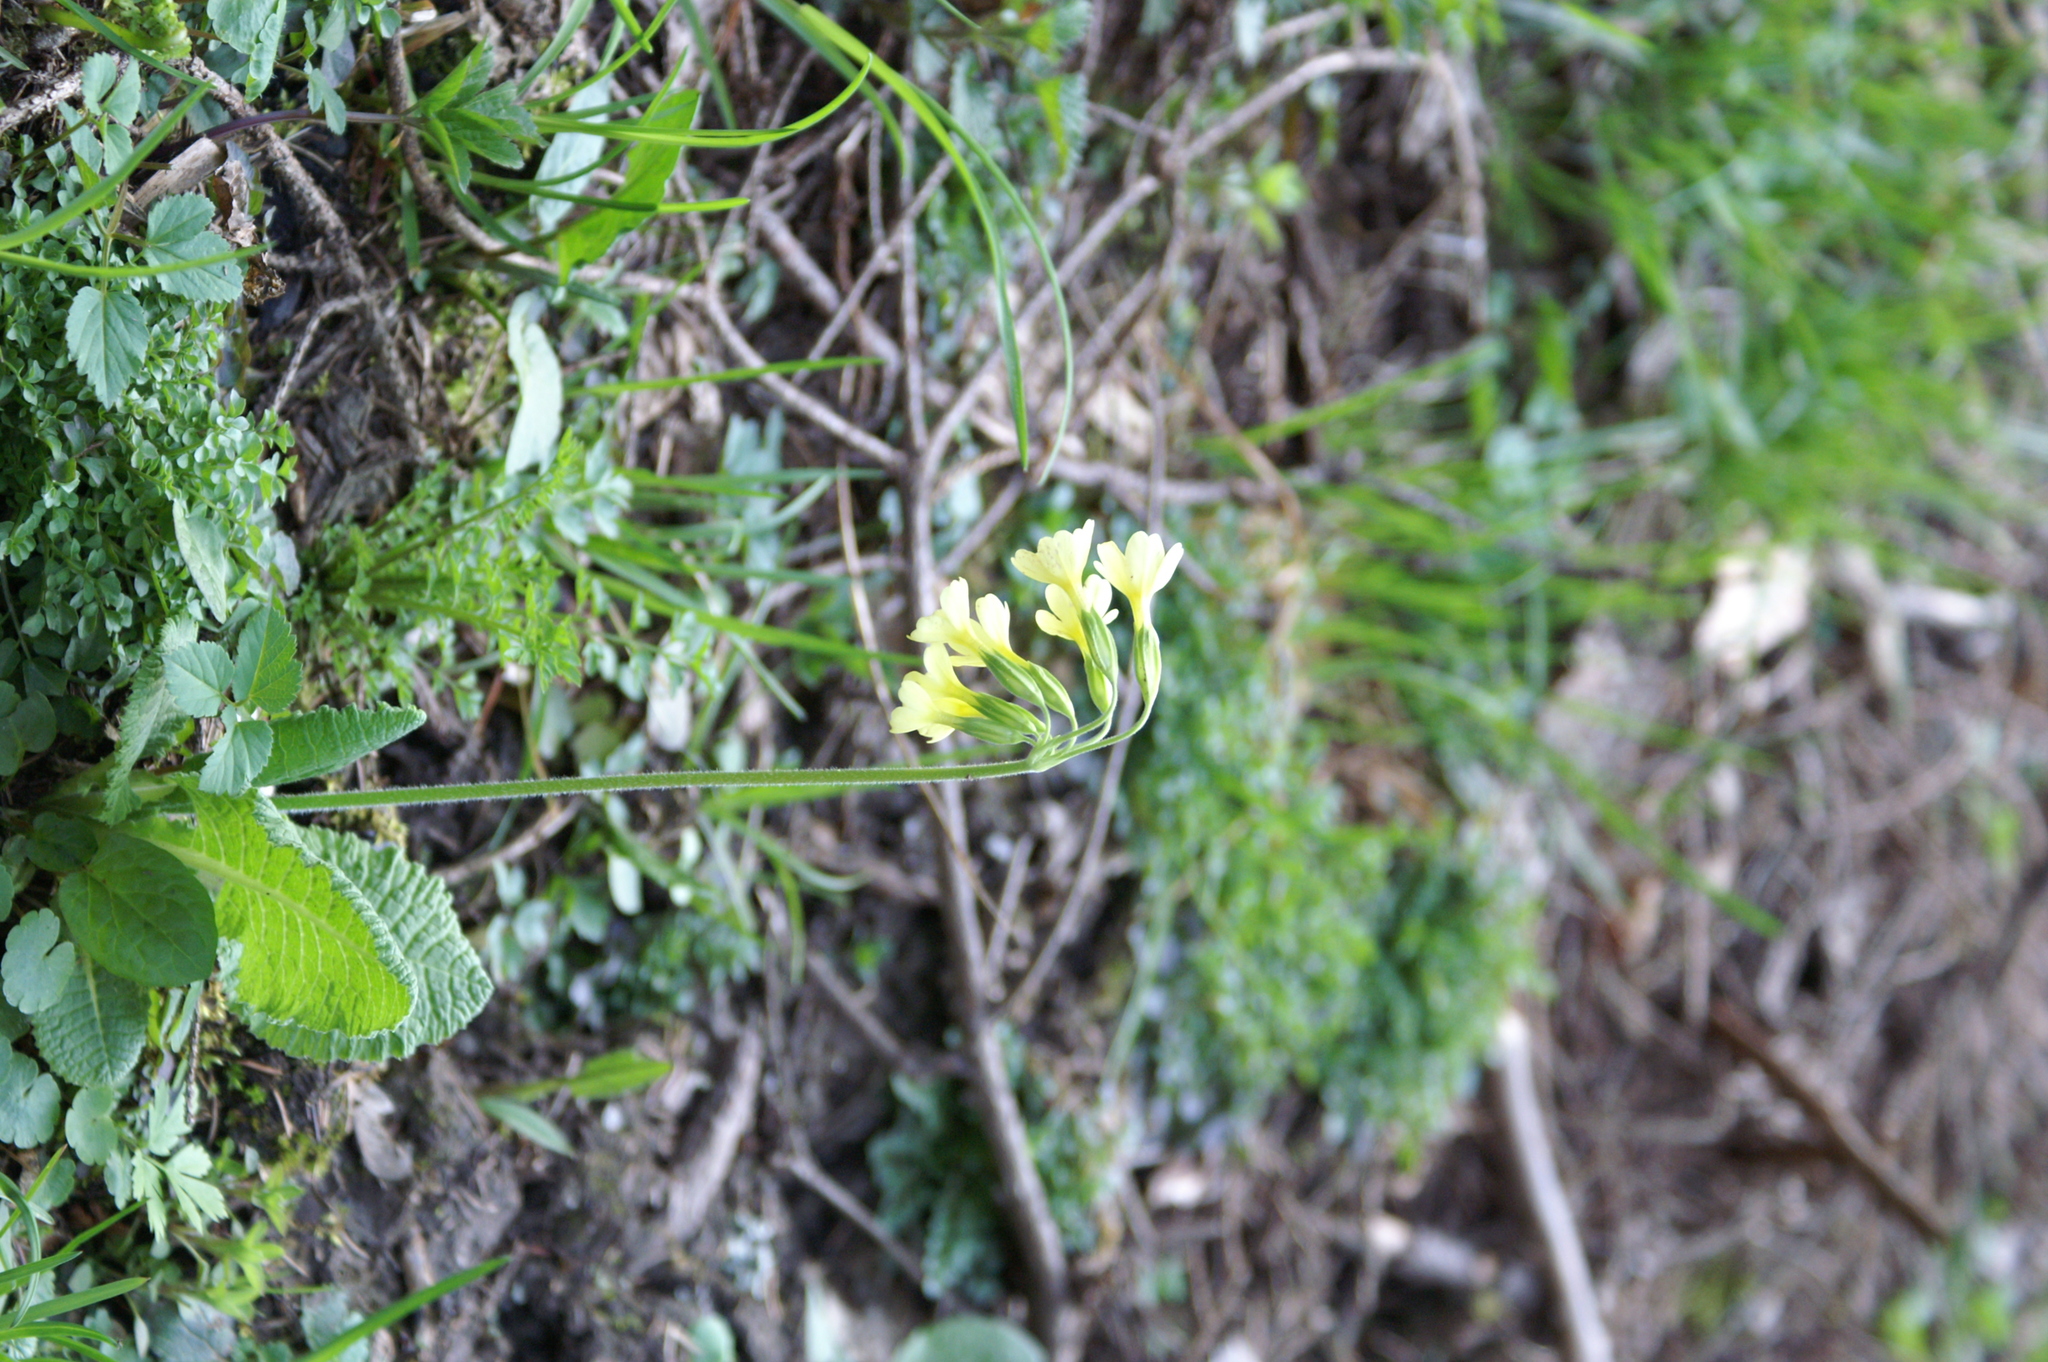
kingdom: Plantae
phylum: Tracheophyta
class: Magnoliopsida
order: Ericales
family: Primulaceae
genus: Primula
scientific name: Primula elatior
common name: Oxlip
